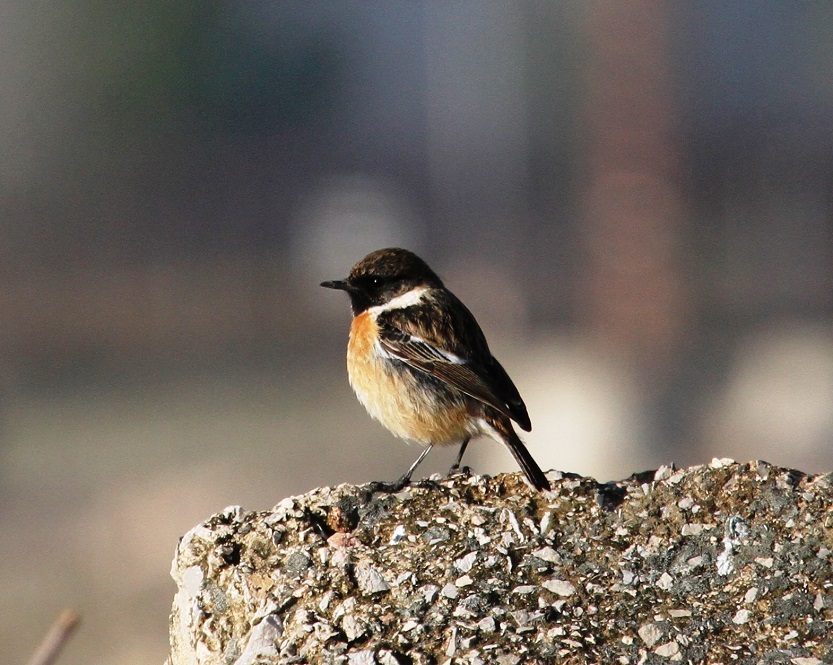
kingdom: Animalia
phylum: Chordata
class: Aves
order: Passeriformes
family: Muscicapidae
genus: Saxicola
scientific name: Saxicola rubicola
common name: European stonechat
